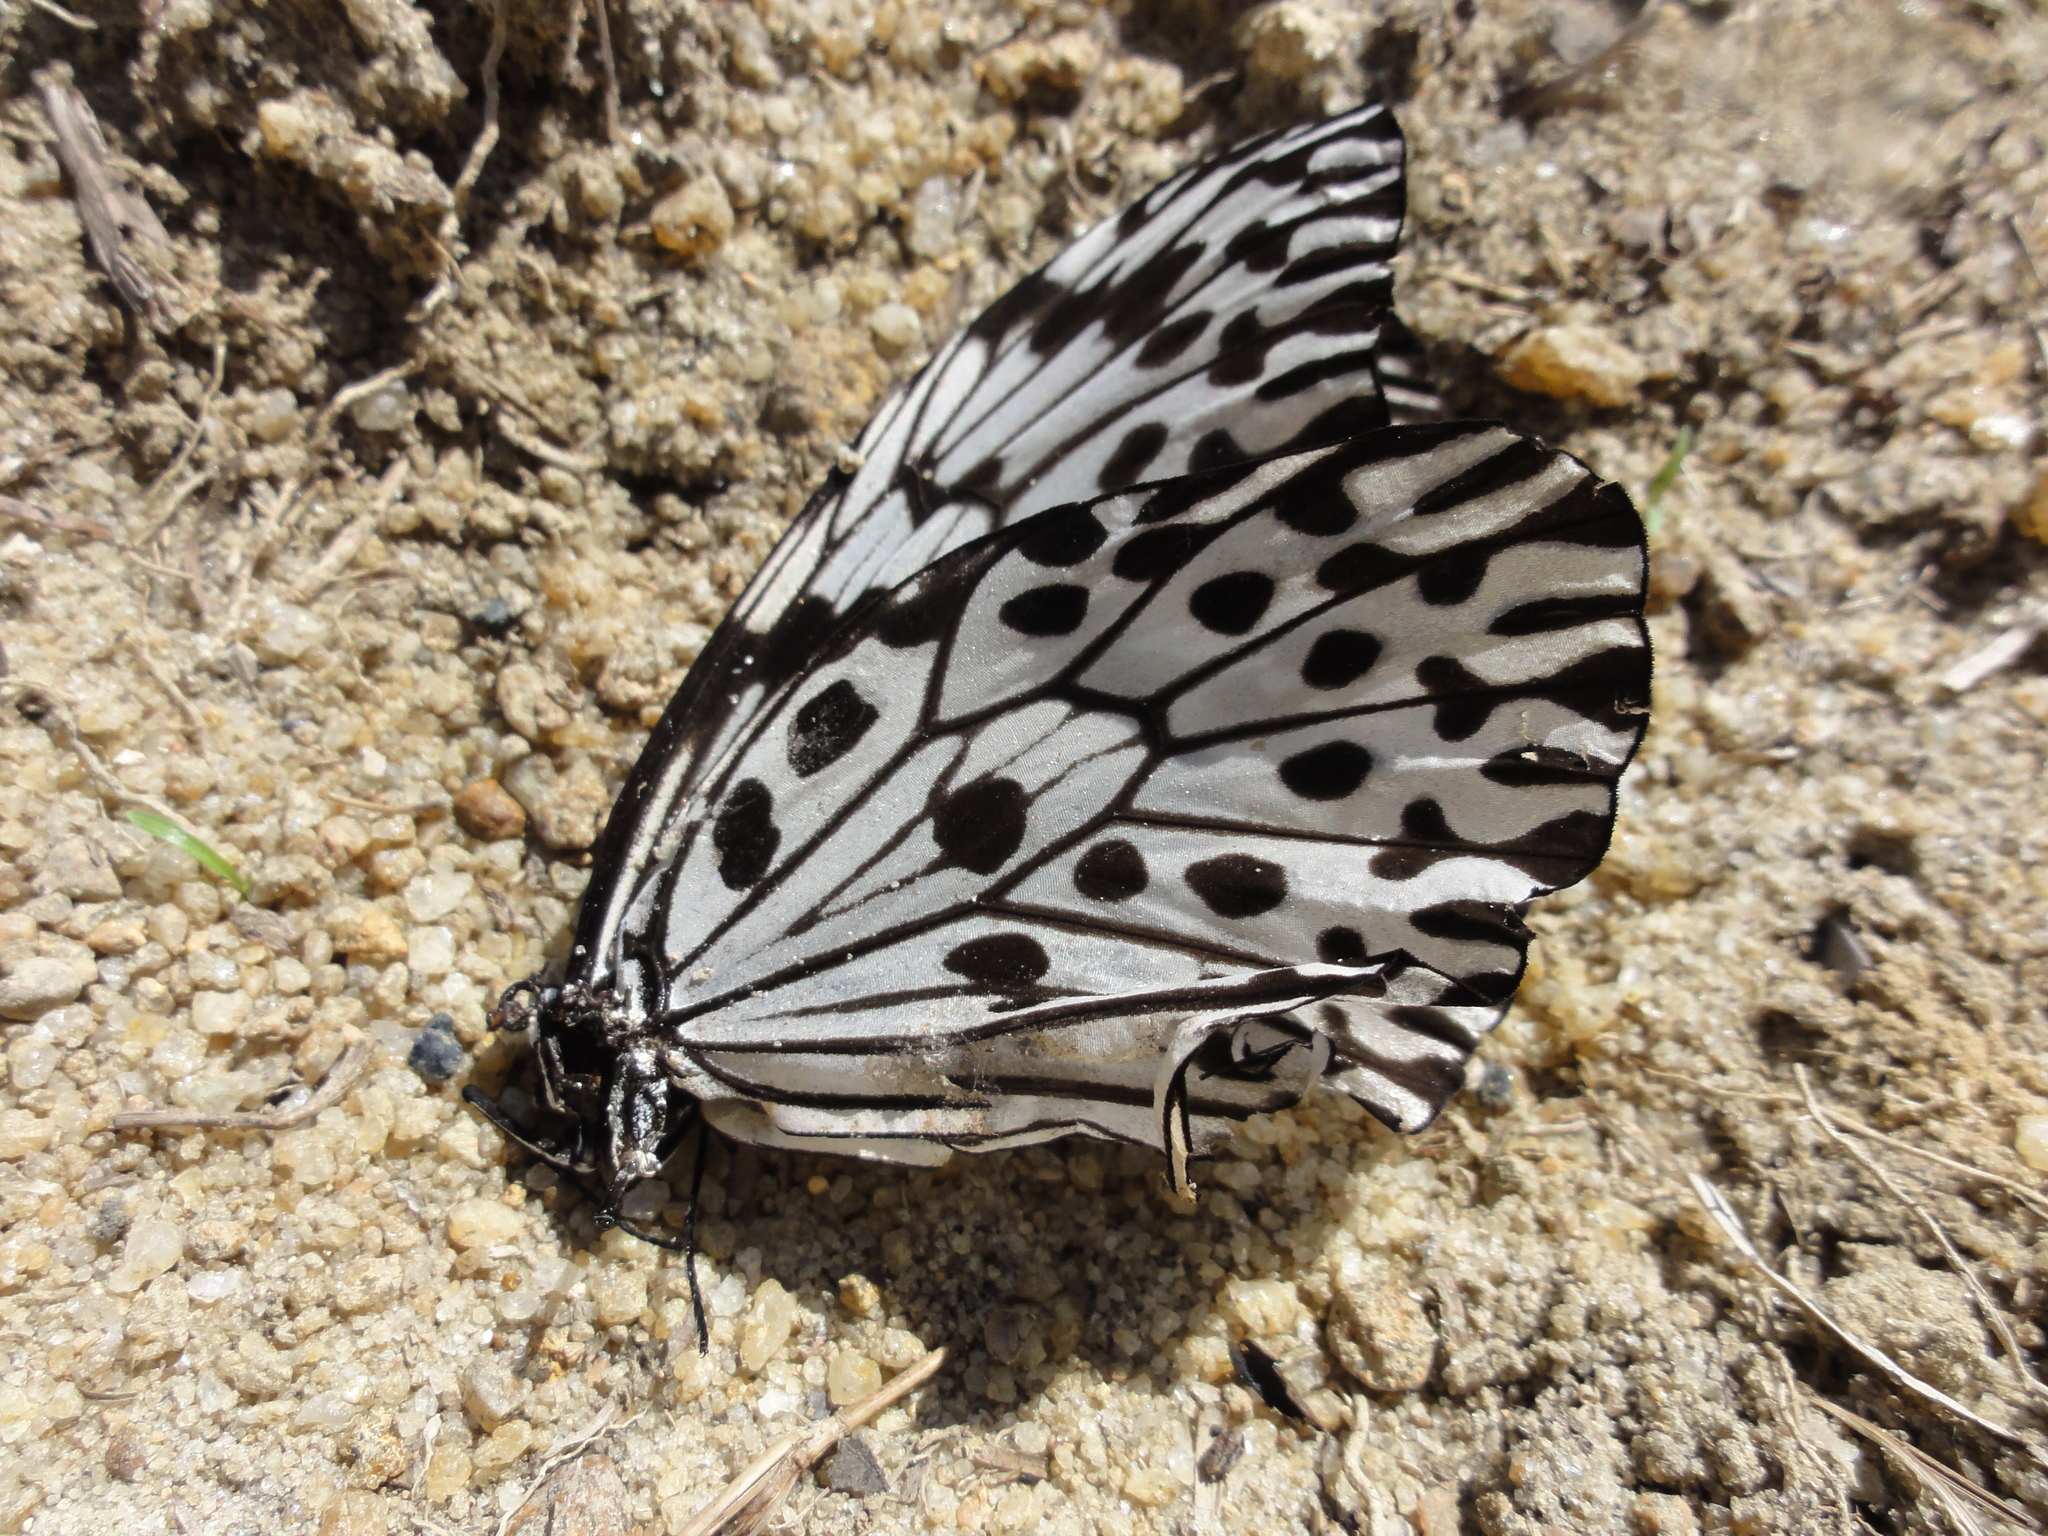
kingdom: Animalia
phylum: Arthropoda
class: Insecta
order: Lepidoptera
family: Nymphalidae
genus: Idea
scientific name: Idea iasonia
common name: Ceylon tree-nymph
